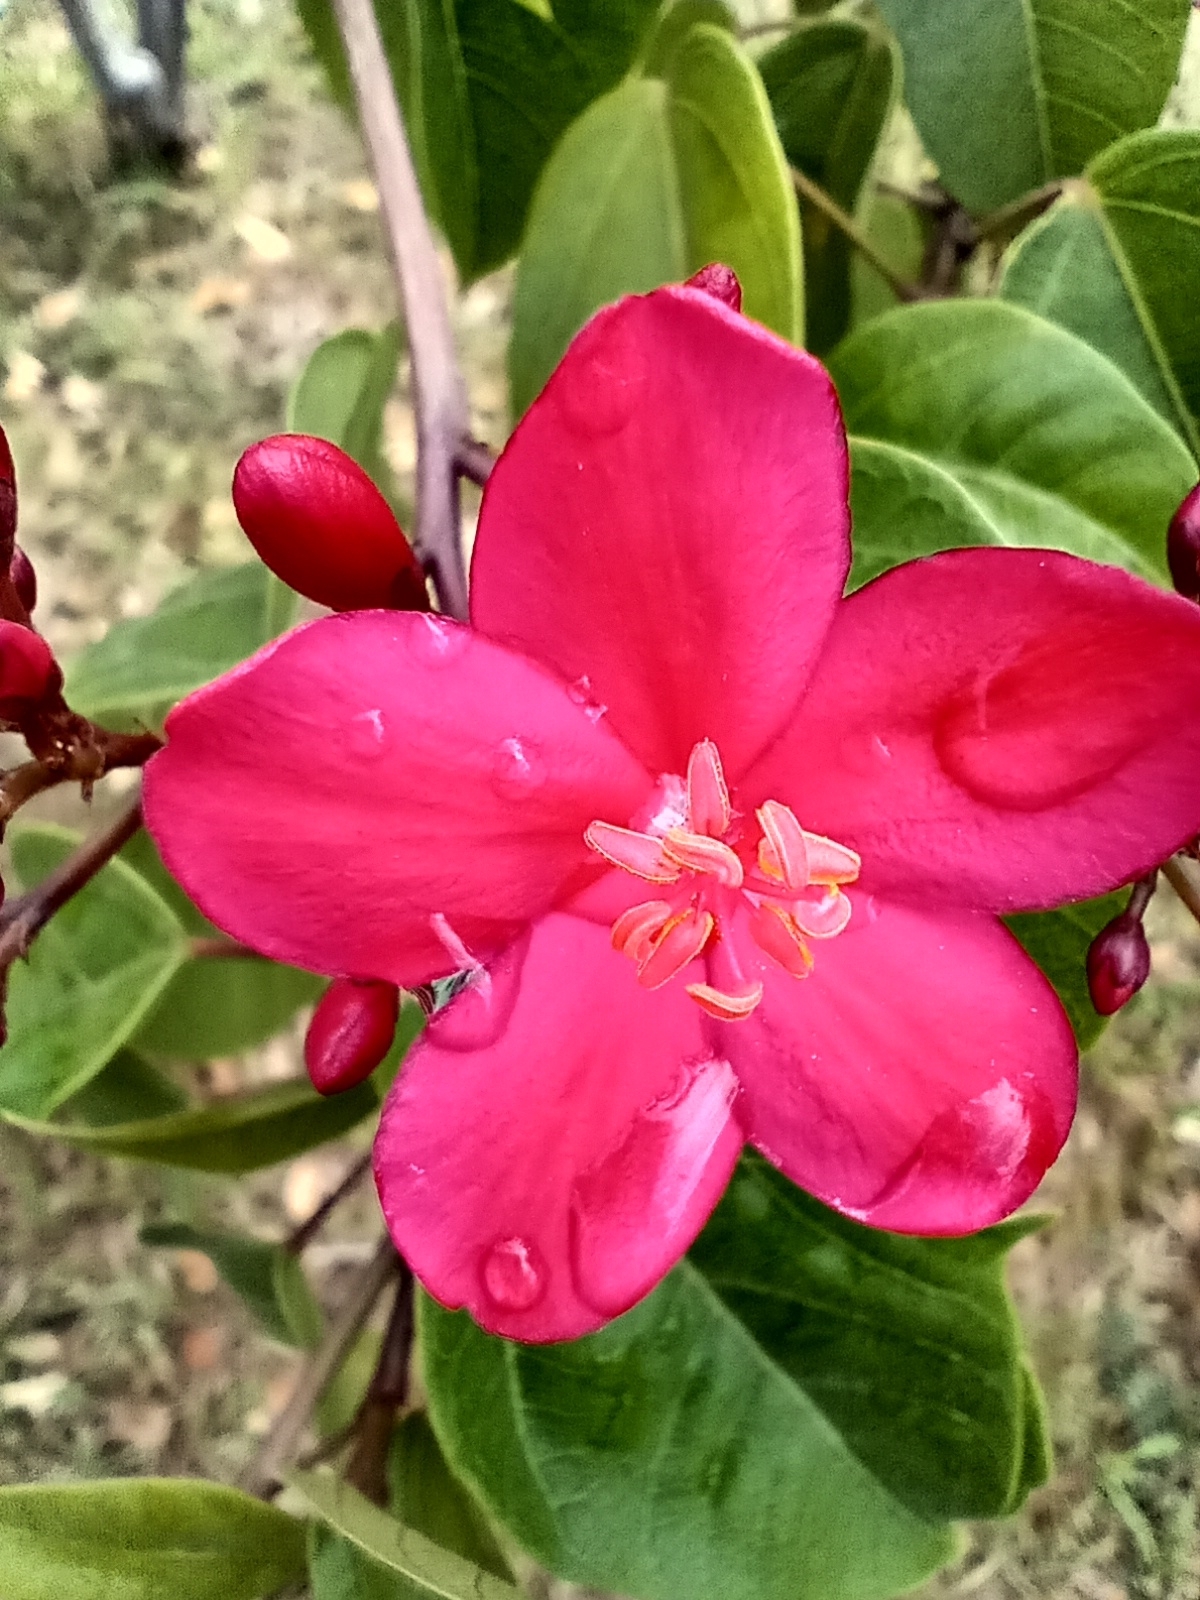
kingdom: Plantae
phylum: Tracheophyta
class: Magnoliopsida
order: Malpighiales
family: Euphorbiaceae
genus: Jatropha
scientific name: Jatropha integerrima
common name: Peregrina
